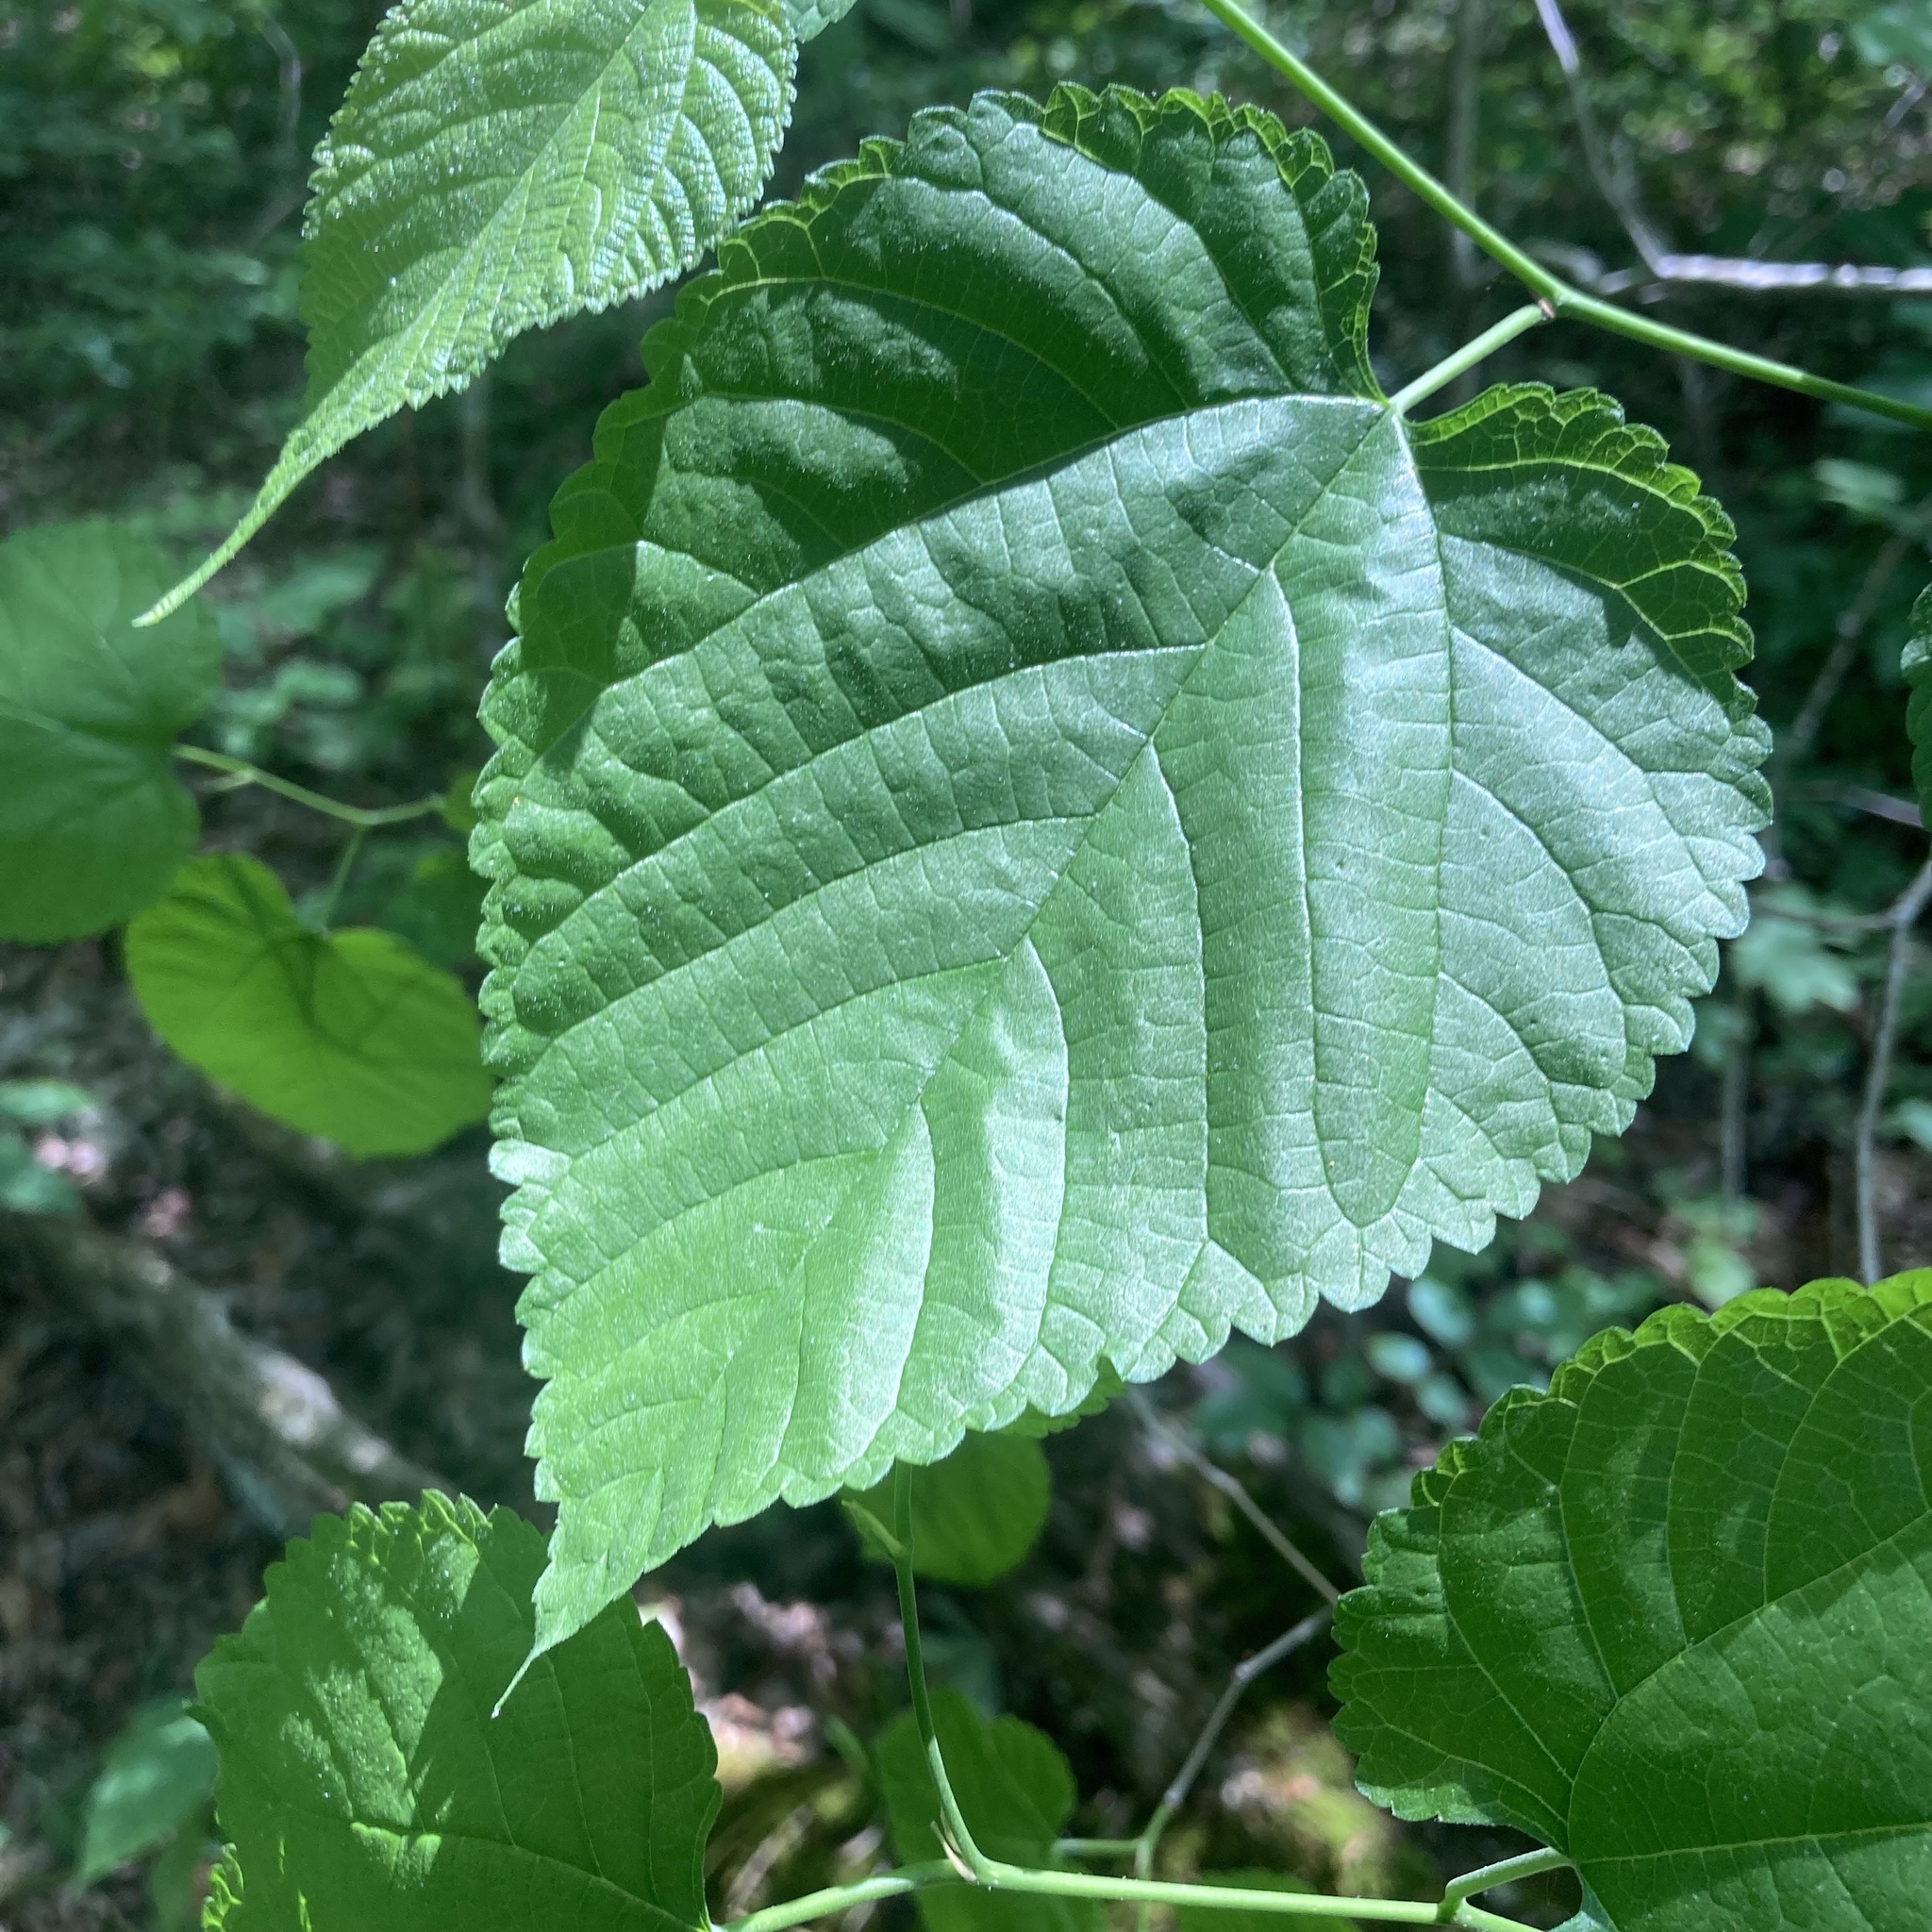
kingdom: Plantae
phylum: Tracheophyta
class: Magnoliopsida
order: Rosales
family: Moraceae
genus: Morus
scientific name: Morus rubra
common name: Red mulberry
